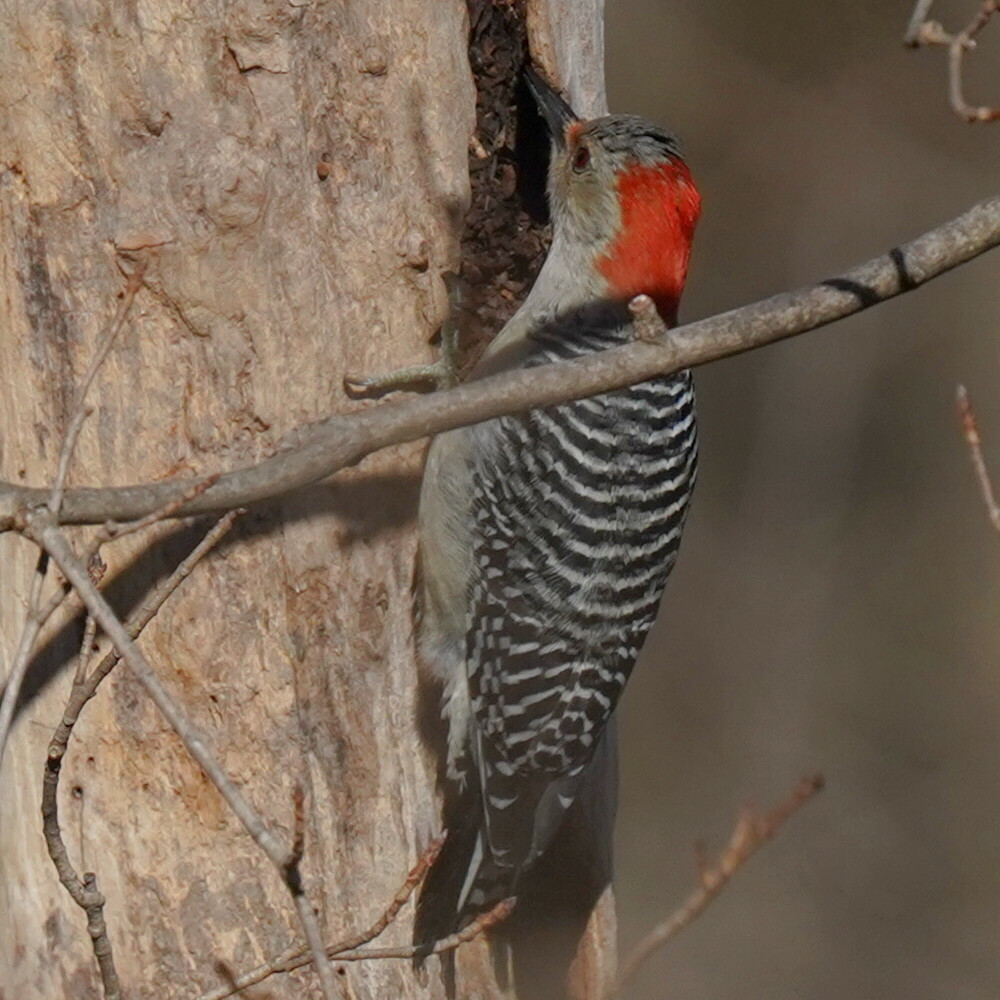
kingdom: Animalia
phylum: Chordata
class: Aves
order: Piciformes
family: Picidae
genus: Melanerpes
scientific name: Melanerpes carolinus
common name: Red-bellied woodpecker
